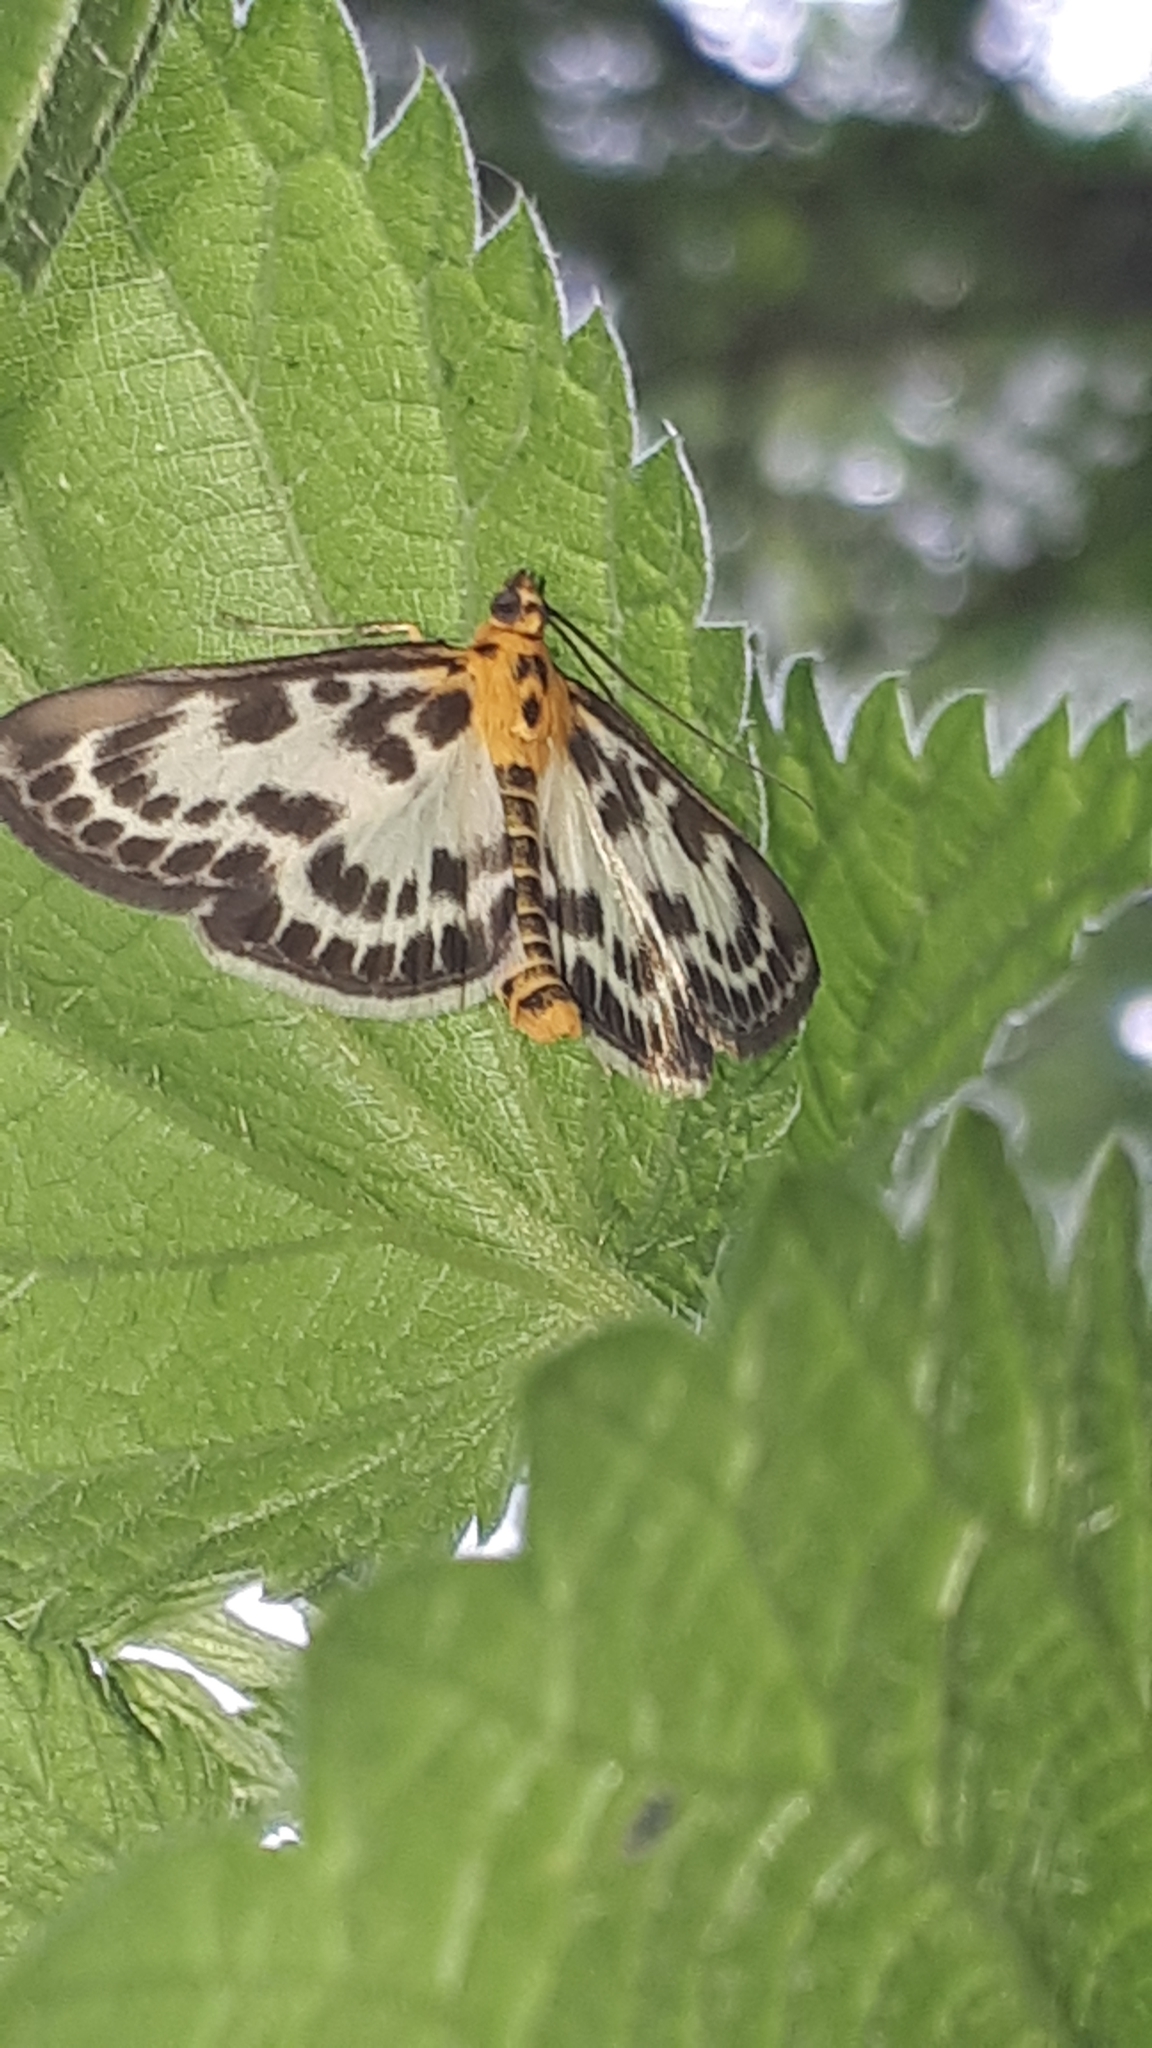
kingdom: Animalia
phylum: Arthropoda
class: Insecta
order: Lepidoptera
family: Crambidae
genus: Anania
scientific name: Anania hortulata
